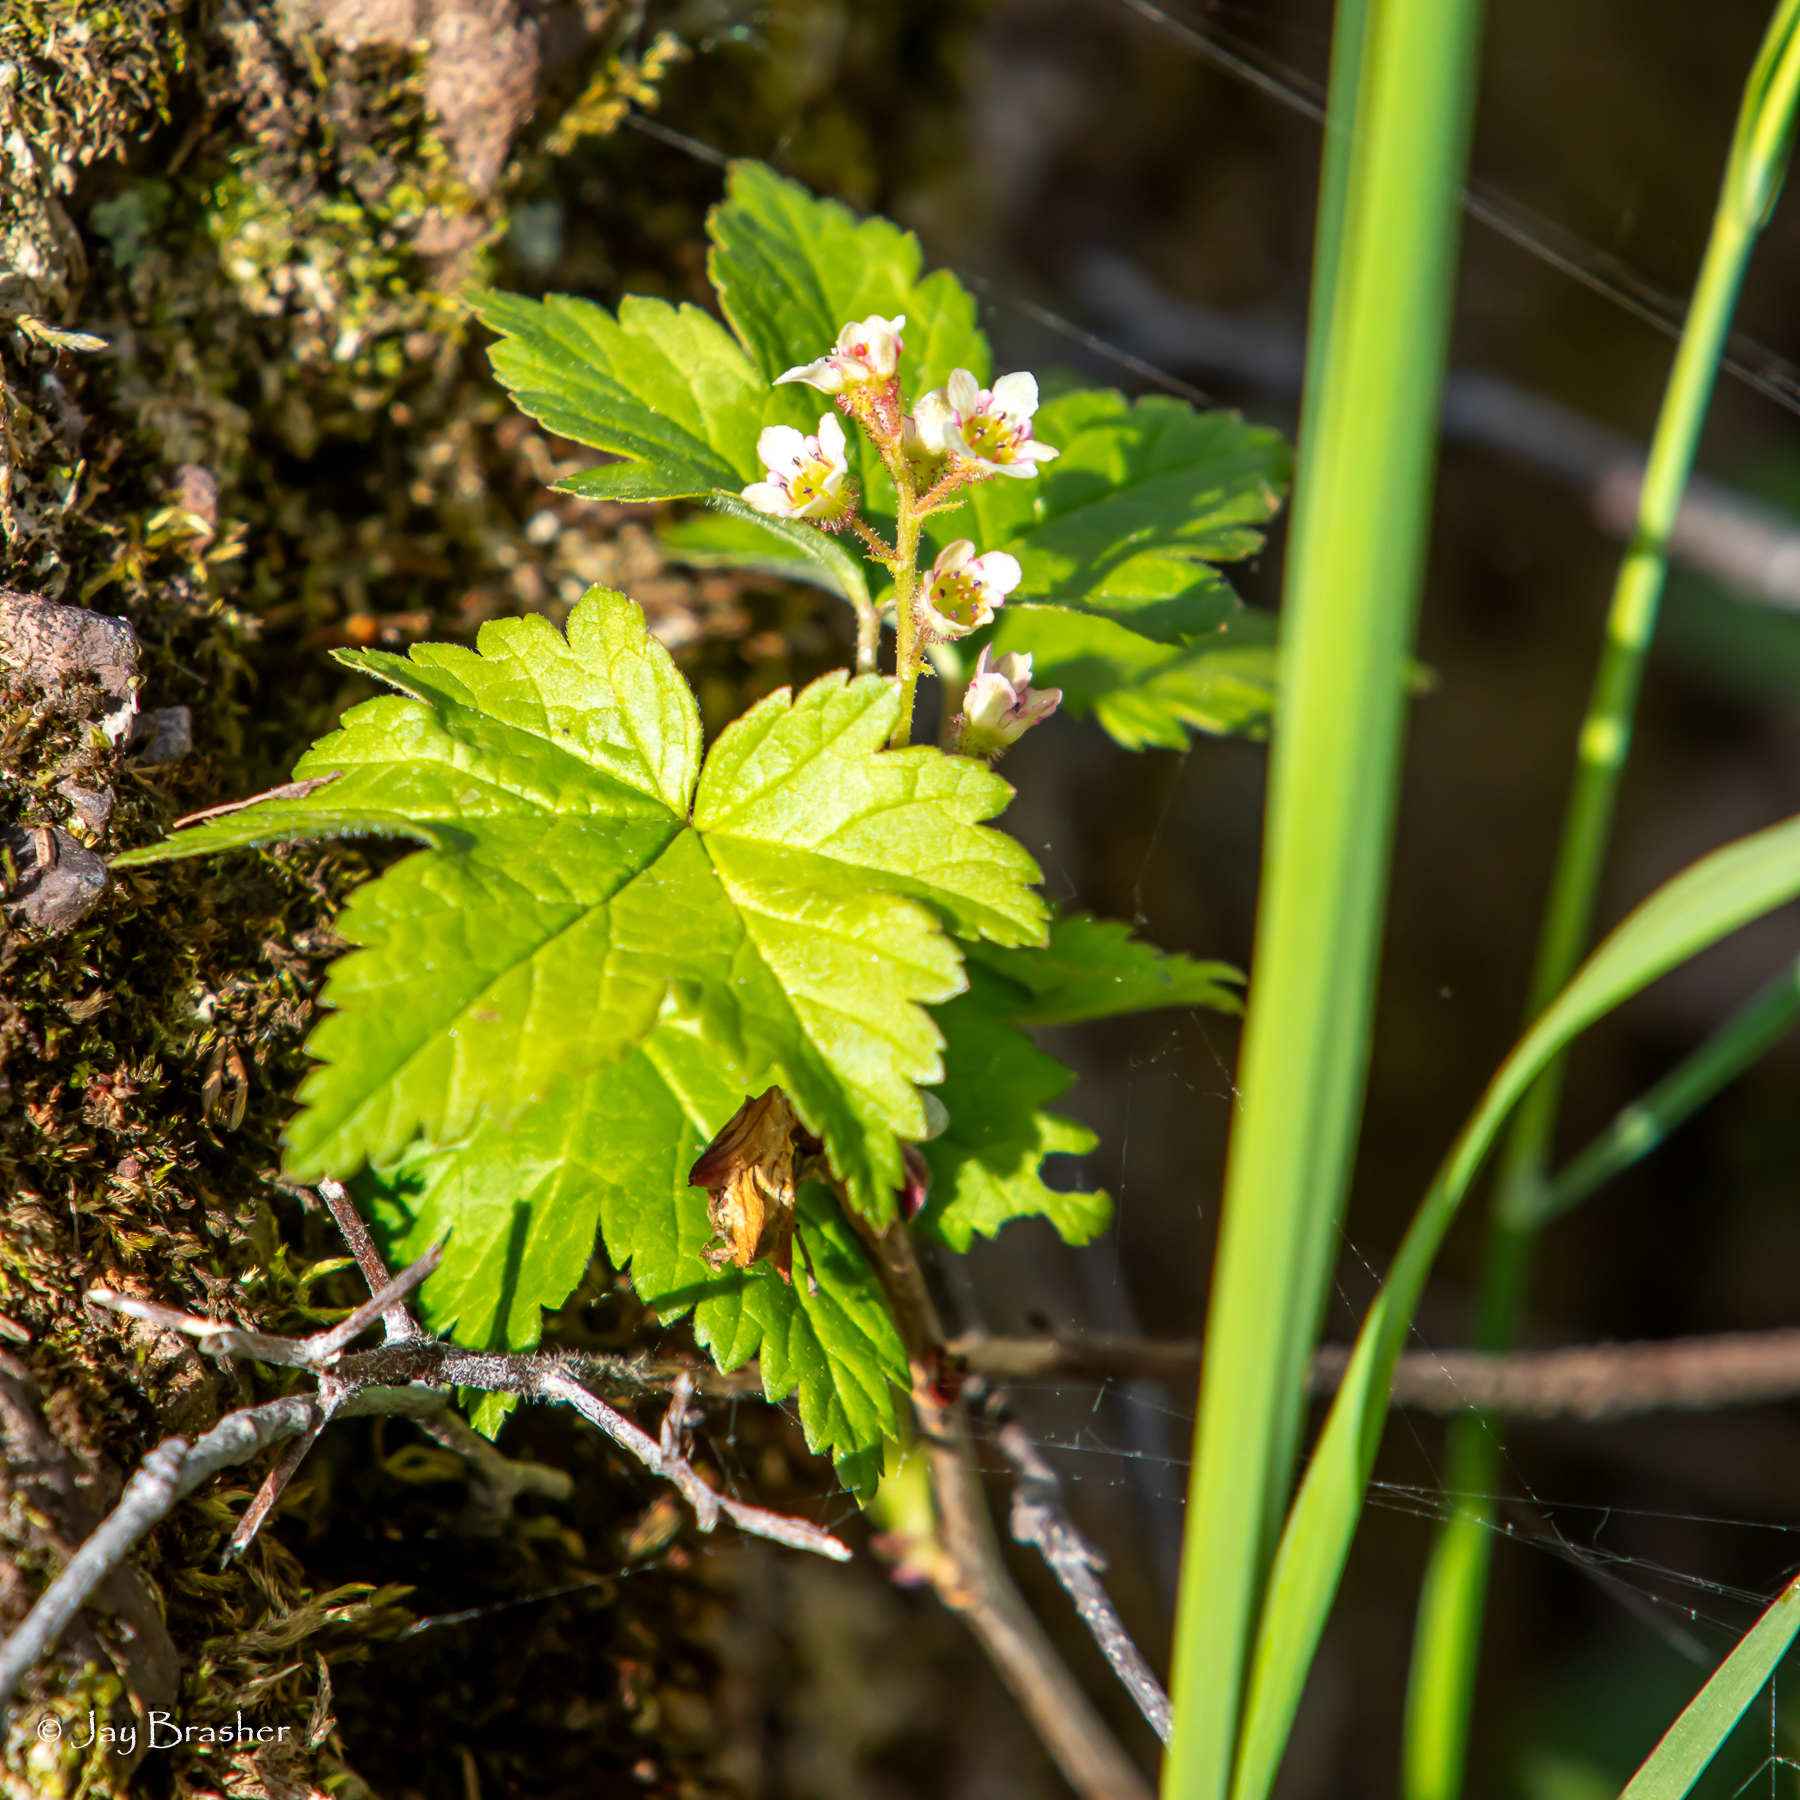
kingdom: Plantae
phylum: Tracheophyta
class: Magnoliopsida
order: Saxifragales
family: Grossulariaceae
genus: Ribes
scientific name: Ribes glandulosum
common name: Skunk currant
